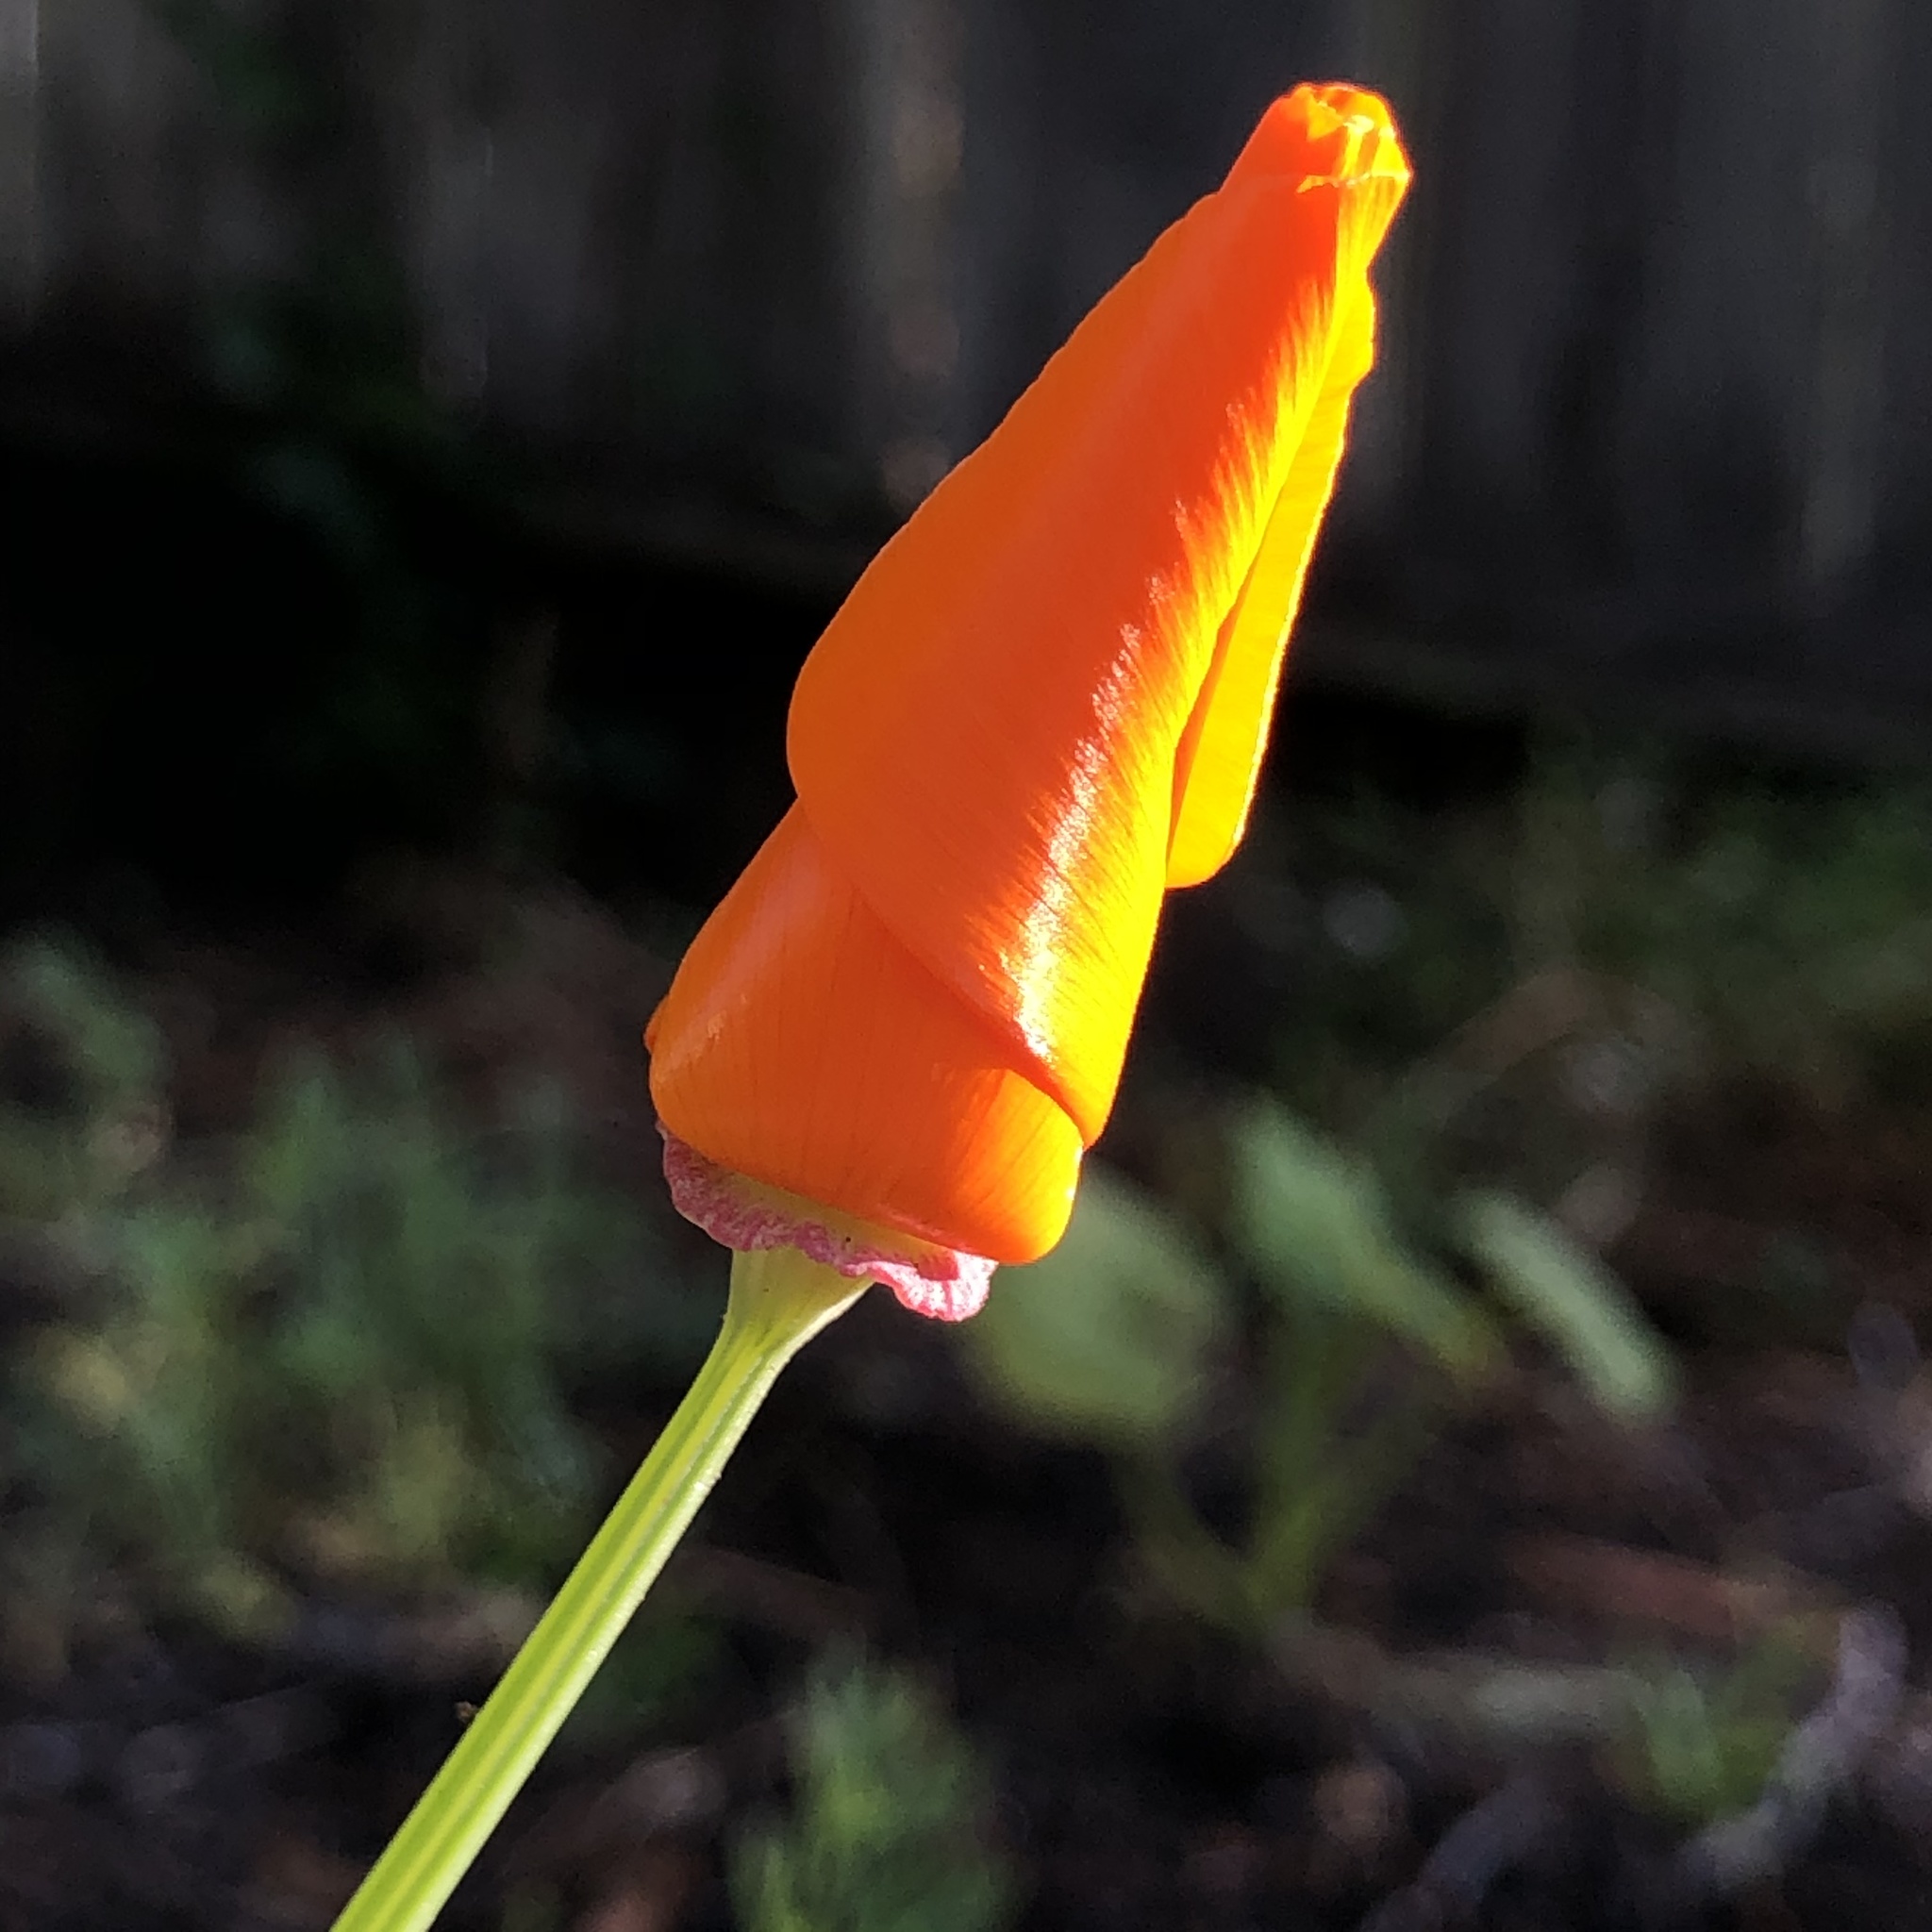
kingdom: Plantae
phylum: Tracheophyta
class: Magnoliopsida
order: Ranunculales
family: Papaveraceae
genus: Eschscholzia
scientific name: Eschscholzia californica
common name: California poppy
